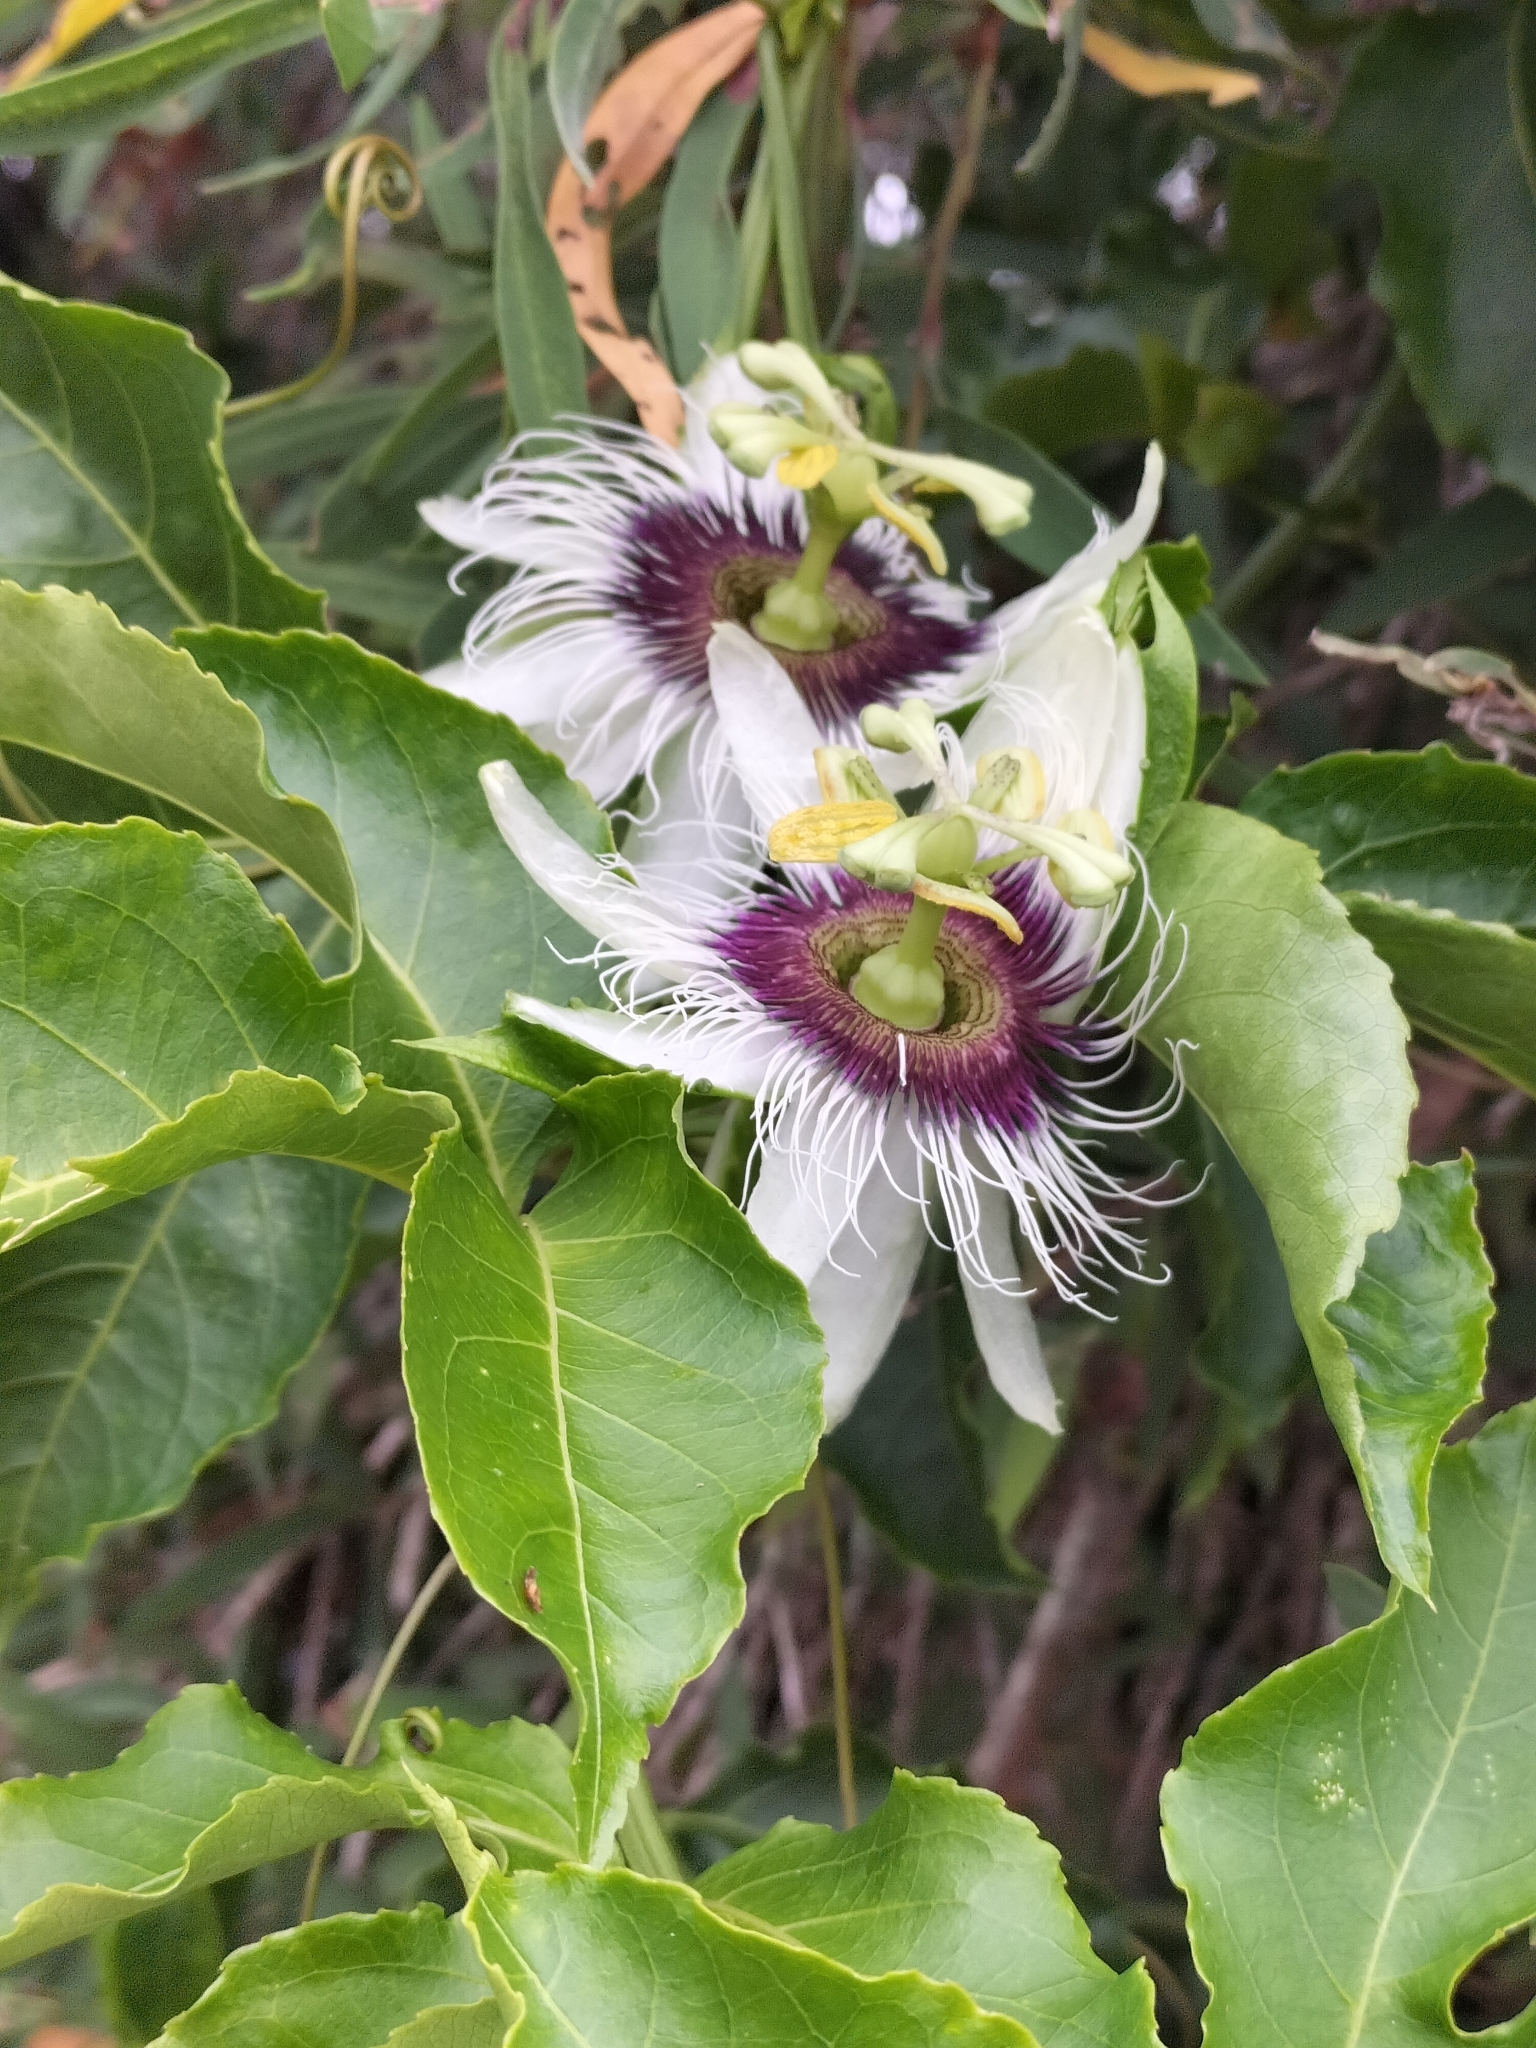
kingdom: Plantae
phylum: Tracheophyta
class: Magnoliopsida
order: Malpighiales
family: Passifloraceae
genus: Passiflora
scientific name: Passiflora edulis
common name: Purple granadilla
